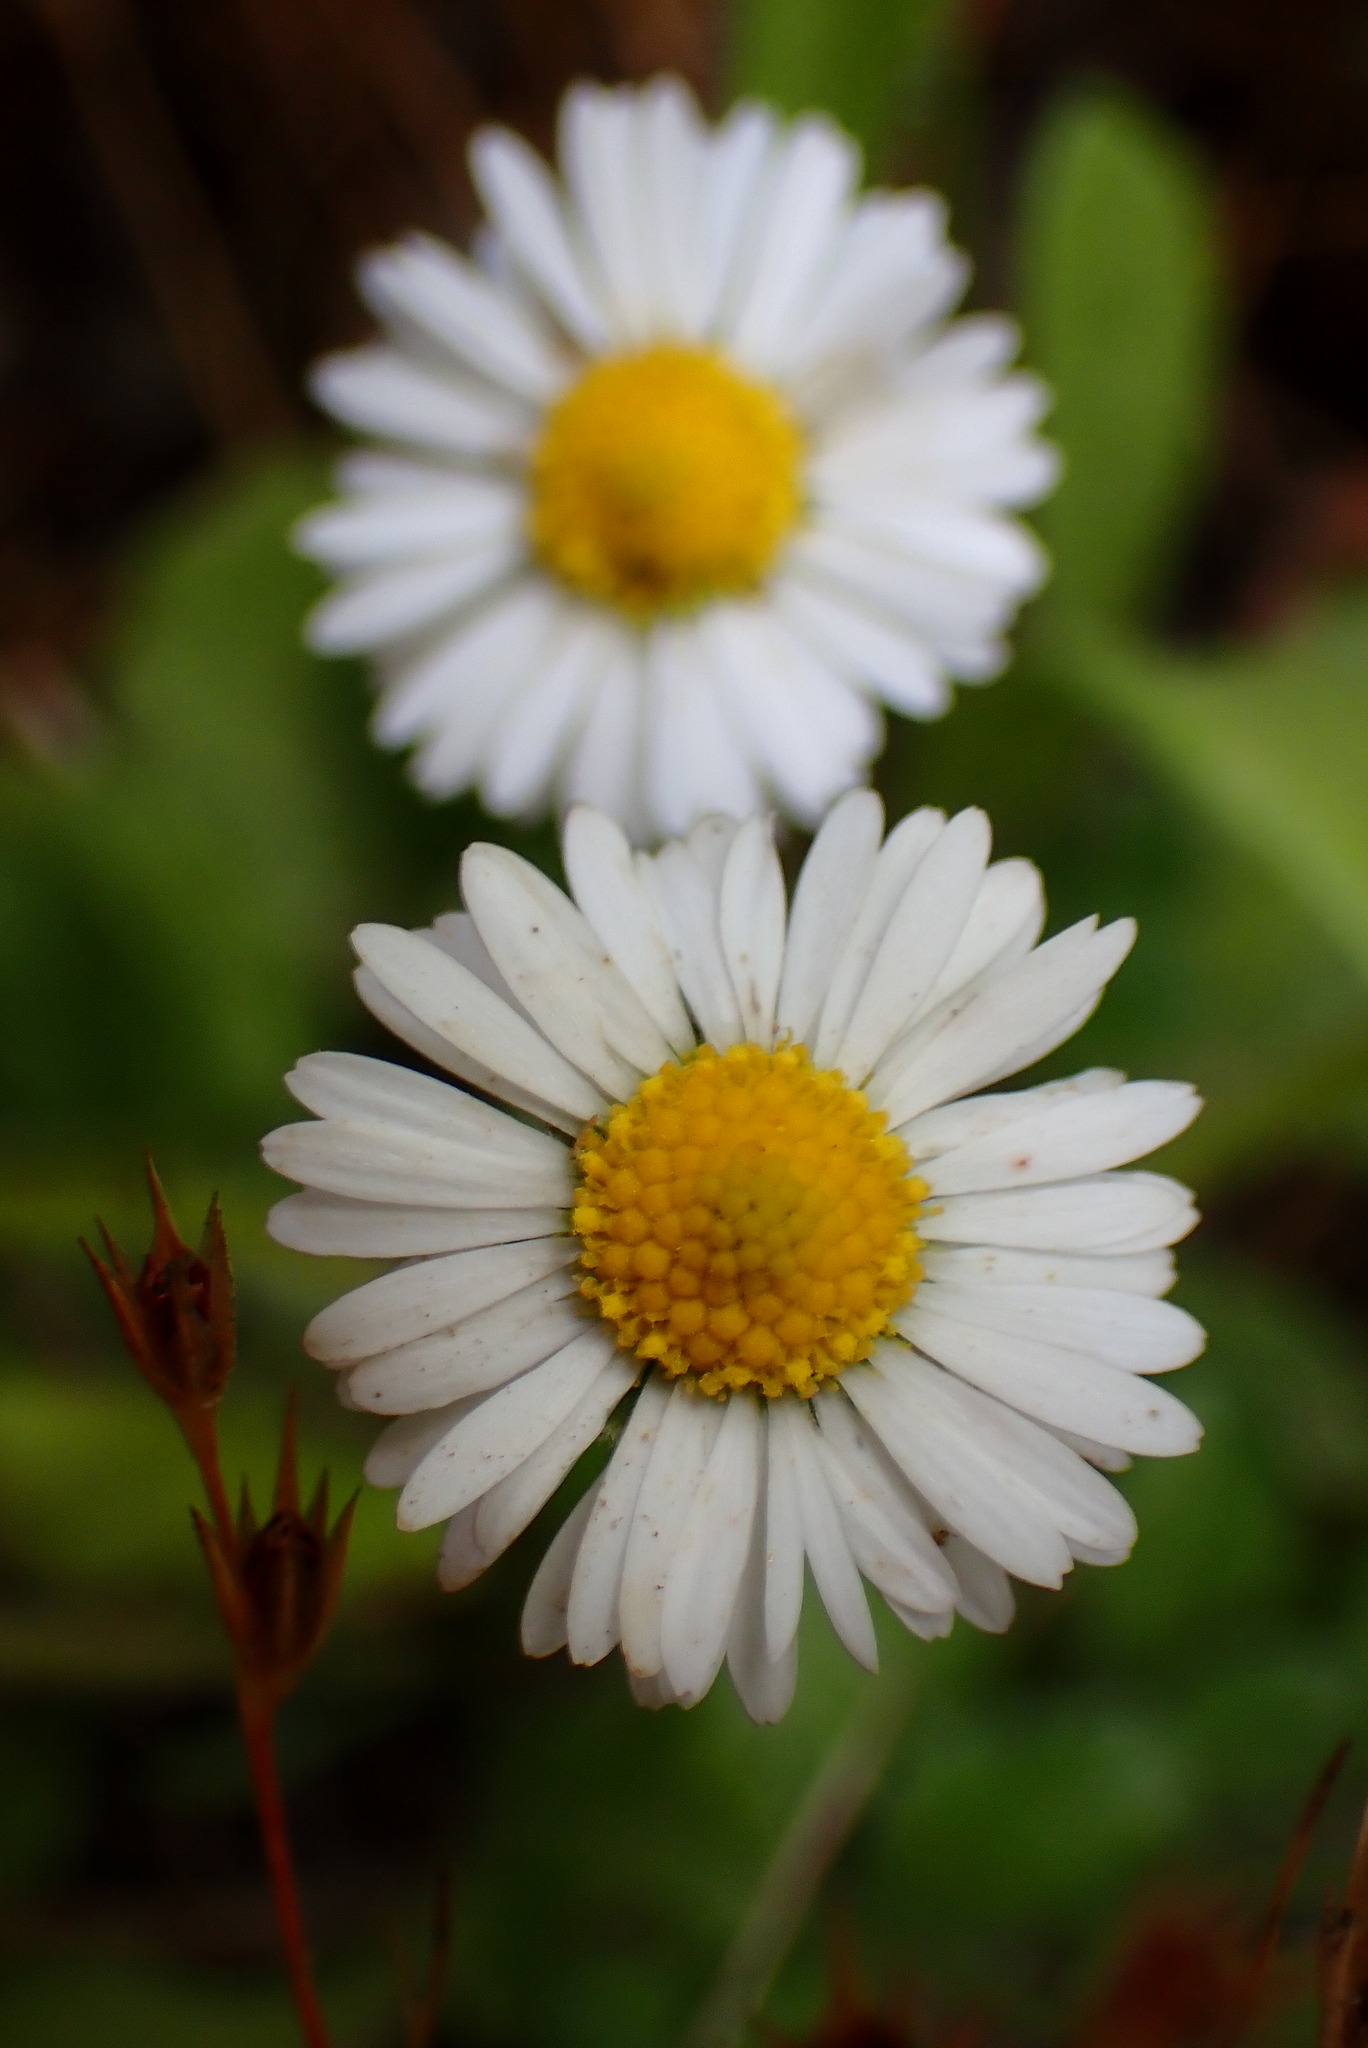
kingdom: Plantae
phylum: Tracheophyta
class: Magnoliopsida
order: Asterales
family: Asteraceae
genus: Bellis
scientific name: Bellis perennis
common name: Lawndaisy
